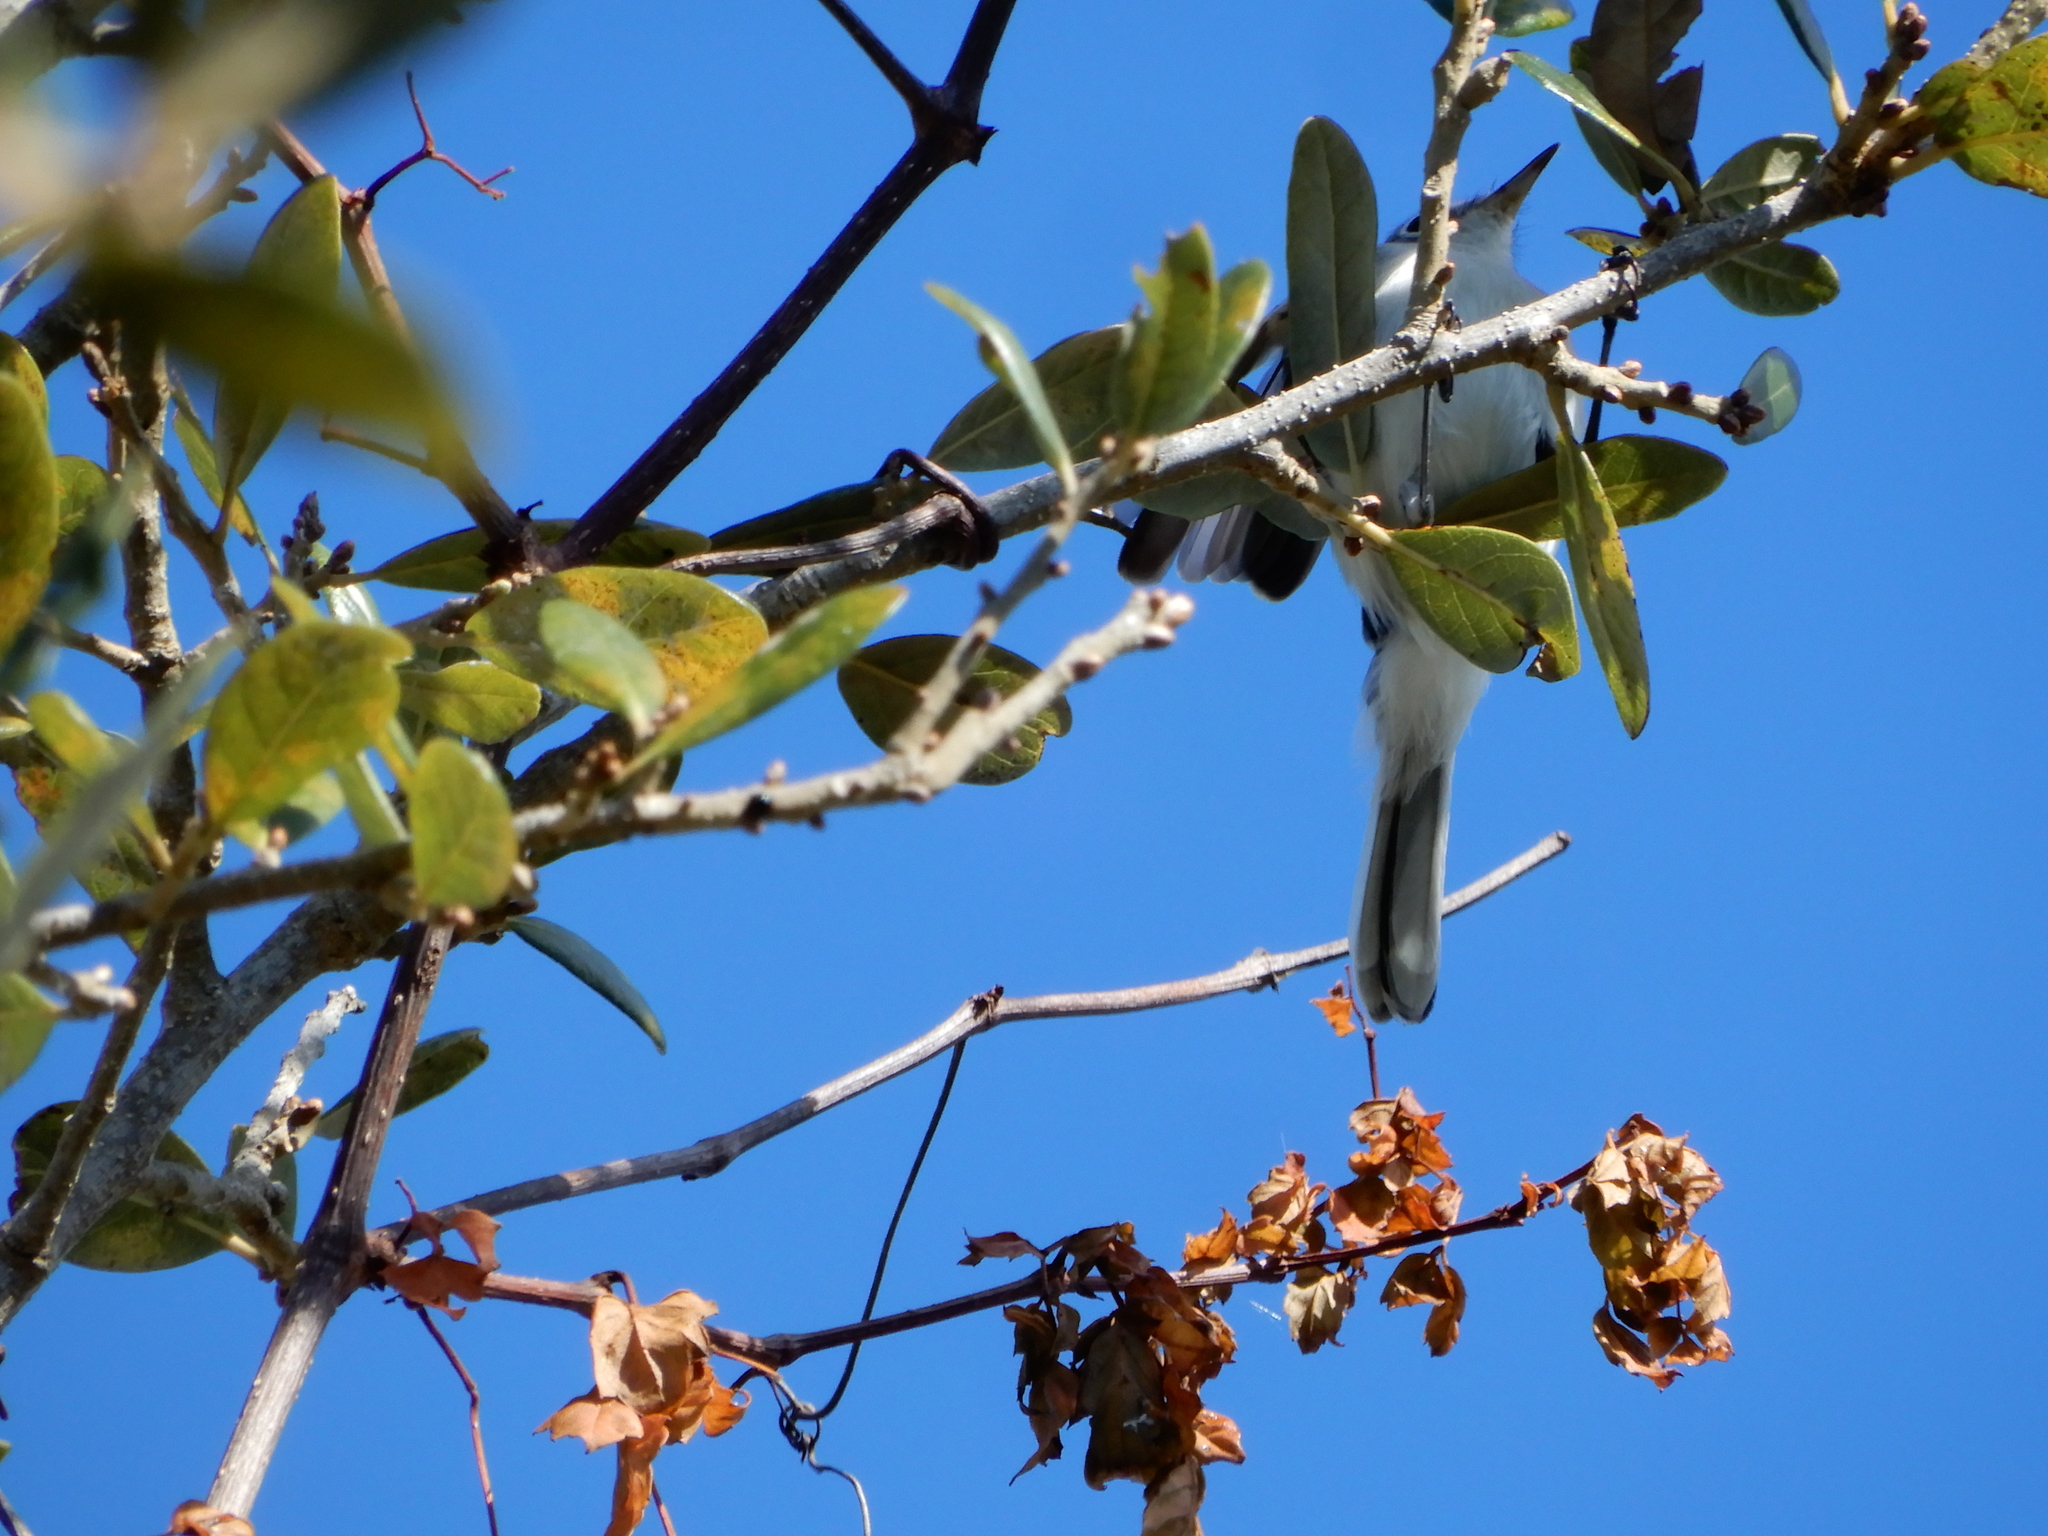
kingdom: Animalia
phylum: Chordata
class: Aves
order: Passeriformes
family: Polioptilidae
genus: Polioptila
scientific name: Polioptila caerulea
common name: Blue-gray gnatcatcher
